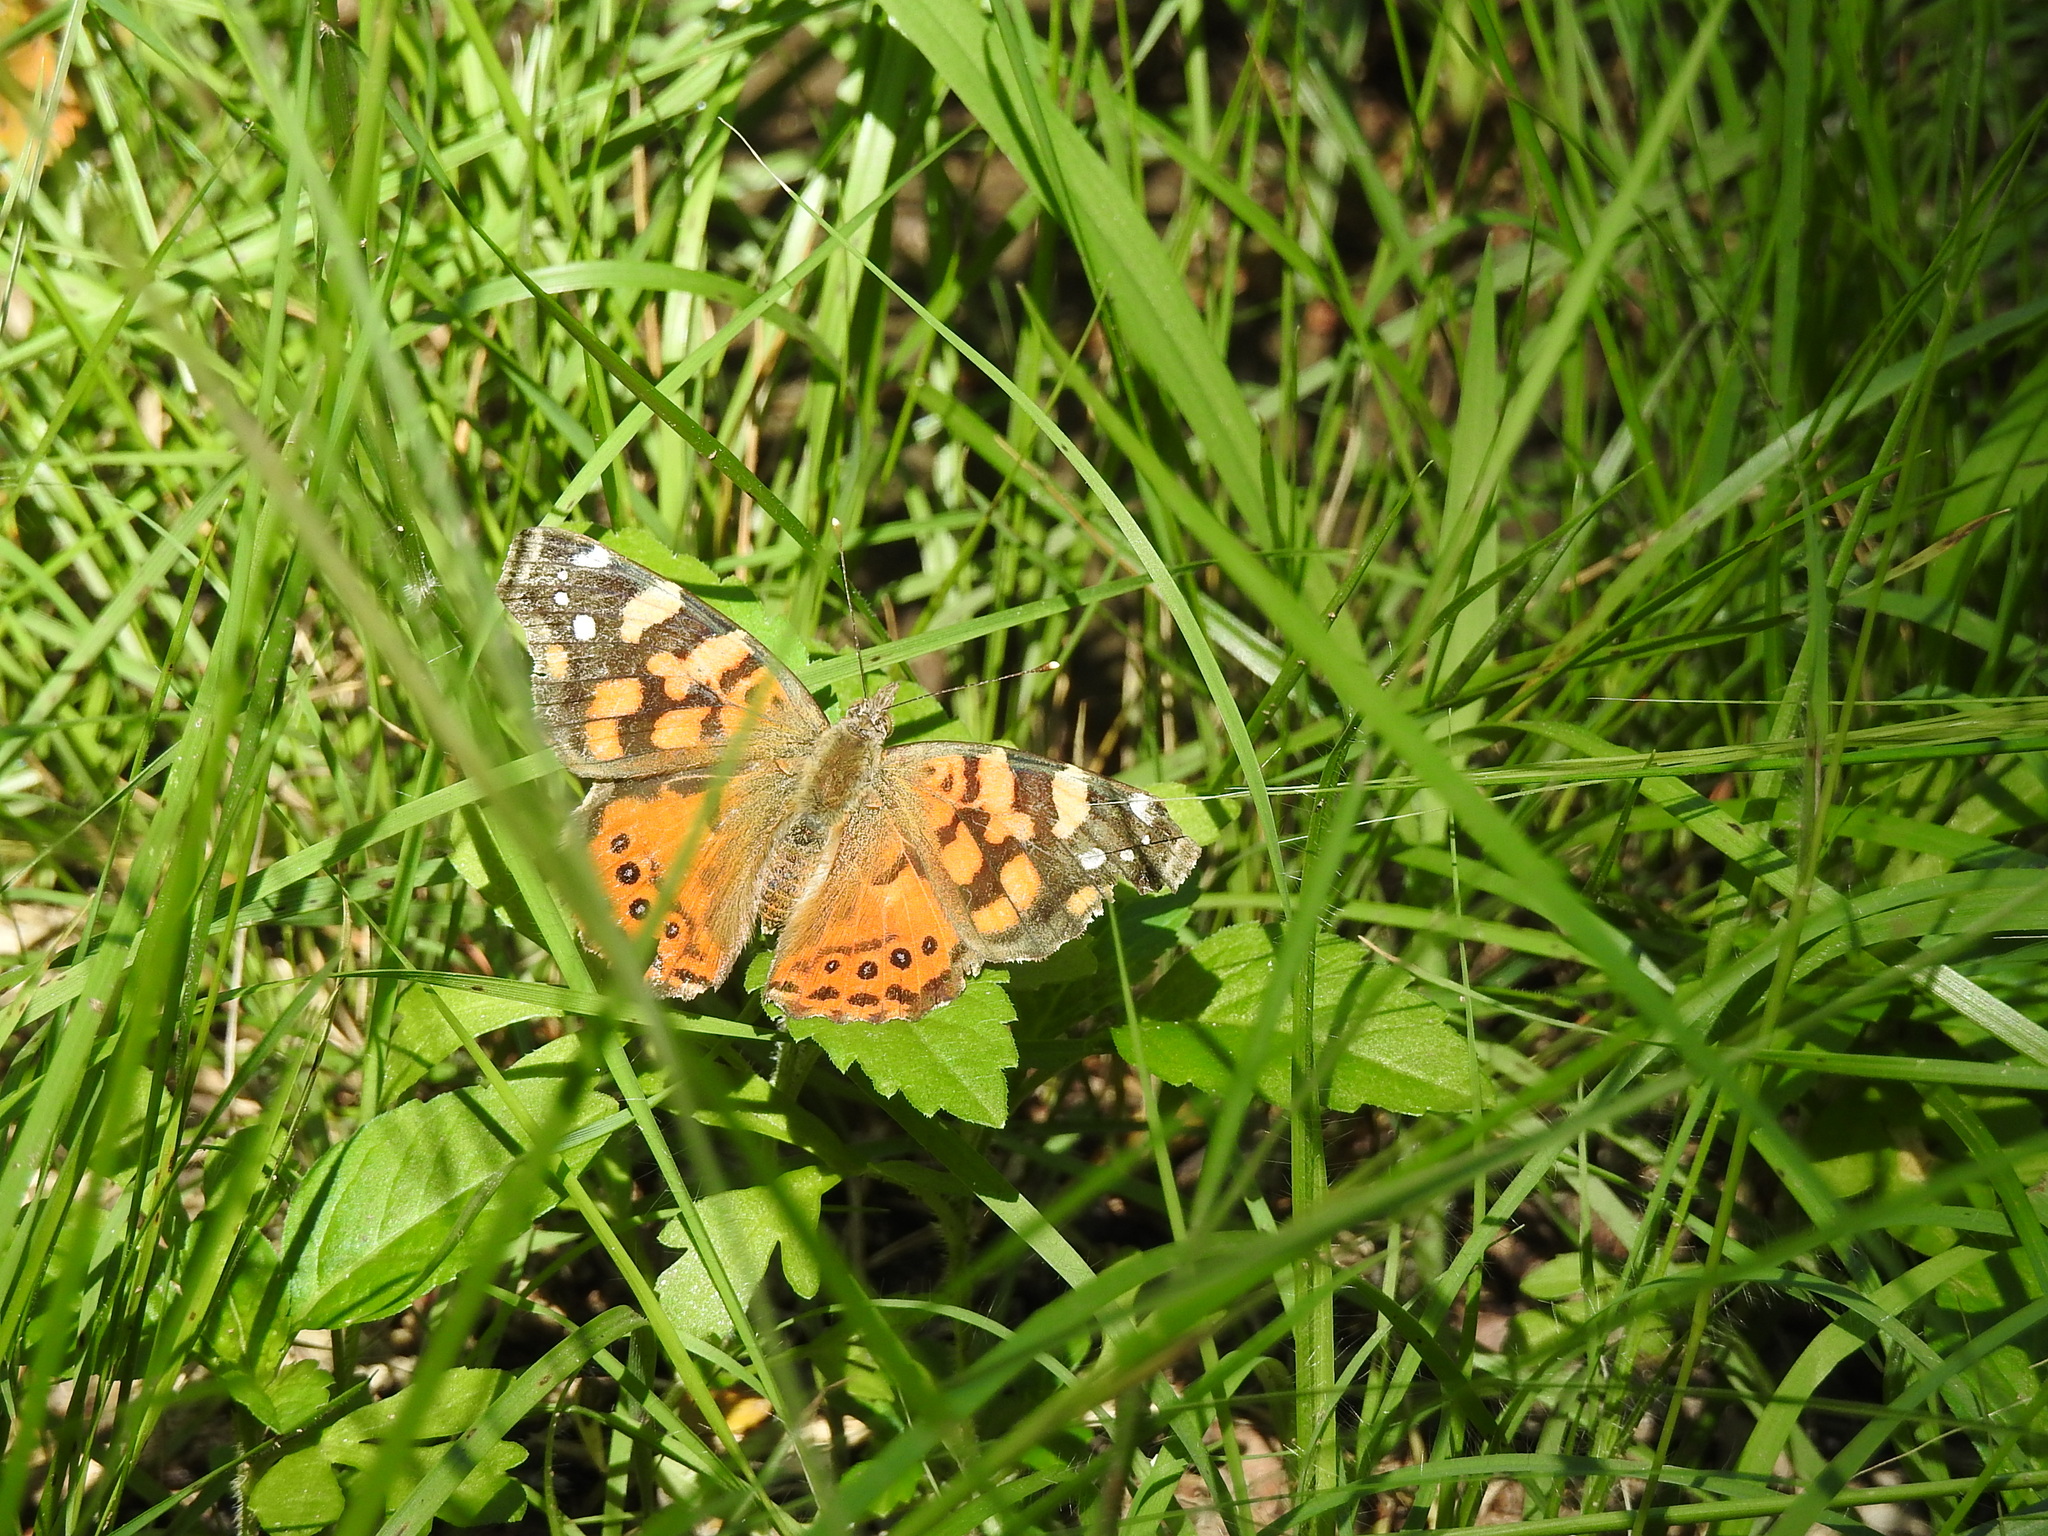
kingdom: Animalia
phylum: Arthropoda
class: Insecta
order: Lepidoptera
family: Nymphalidae
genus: Vanessa
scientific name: Vanessa carye
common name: Subtropical lady
